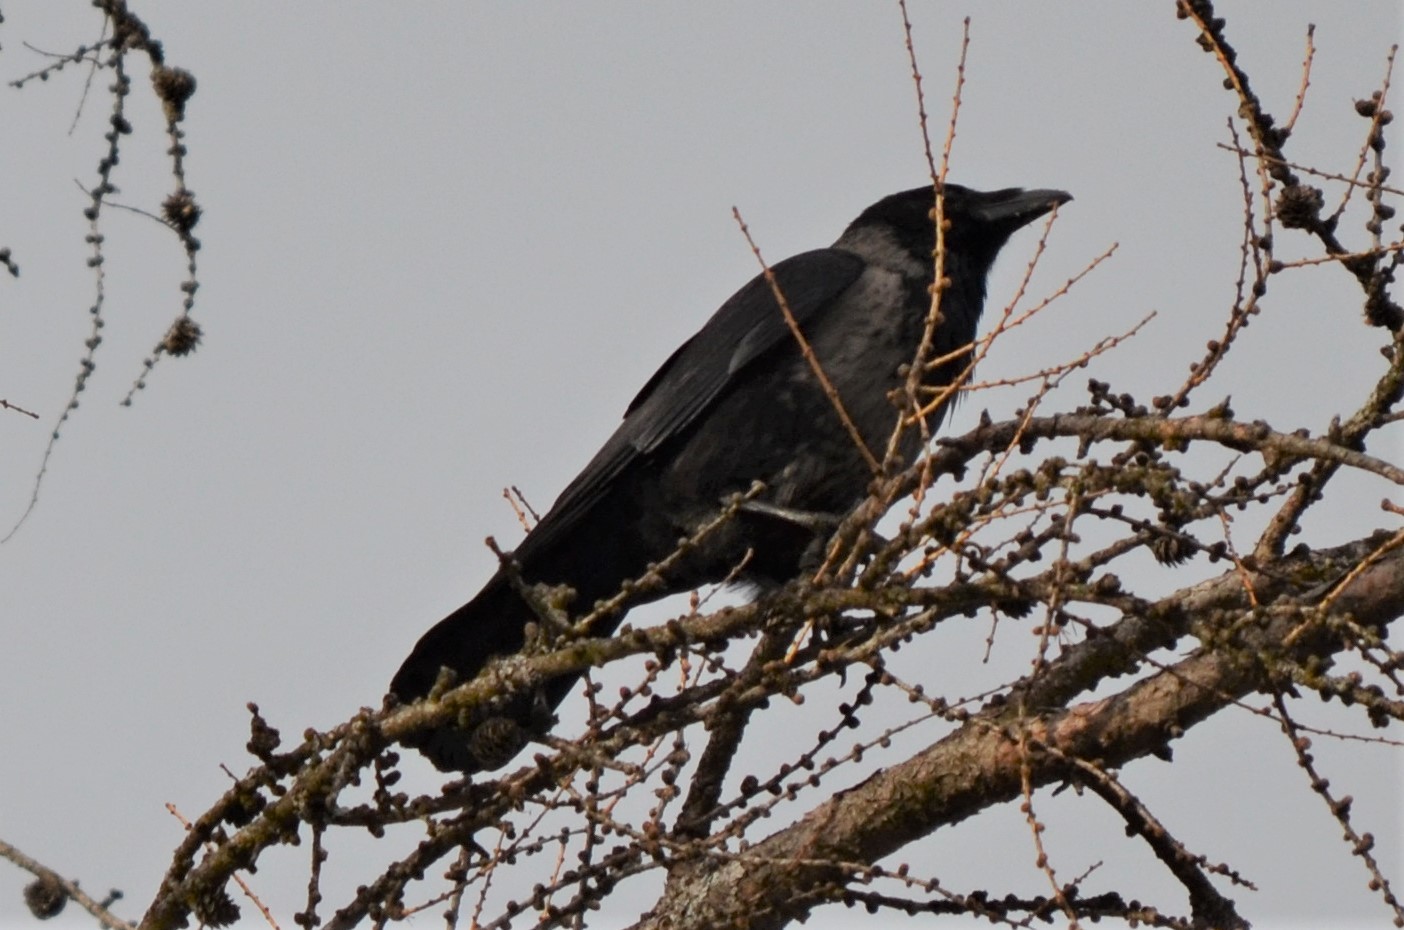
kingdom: Animalia
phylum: Chordata
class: Aves
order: Passeriformes
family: Corvidae
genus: Corvus
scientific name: Corvus
